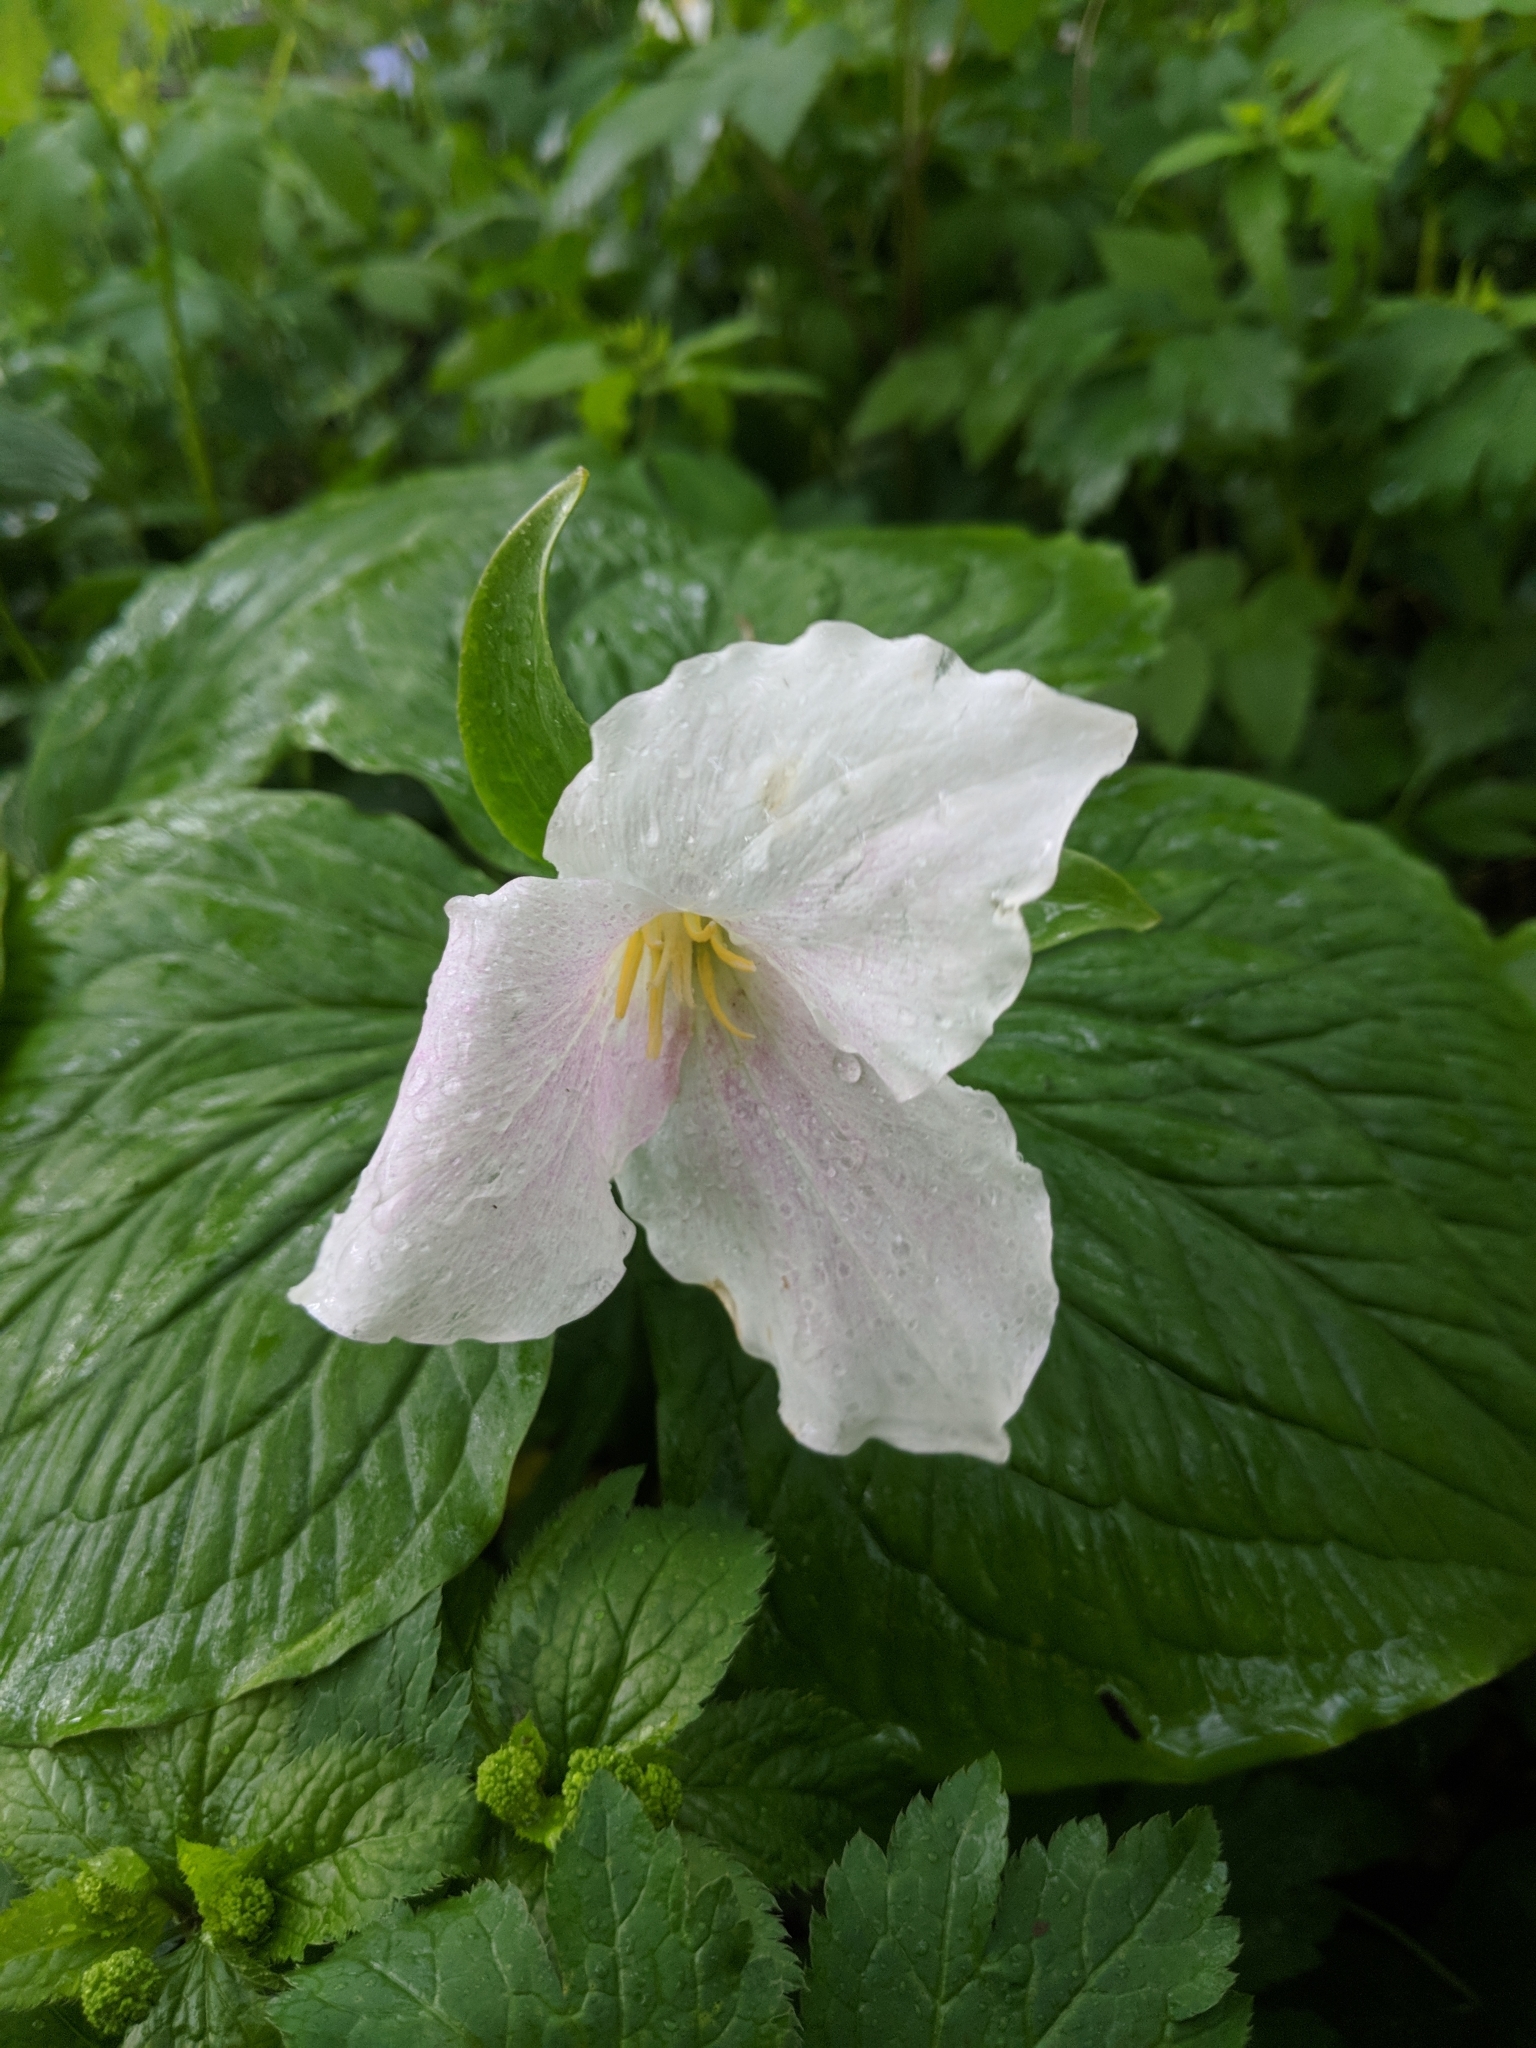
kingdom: Plantae
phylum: Tracheophyta
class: Liliopsida
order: Liliales
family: Melanthiaceae
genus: Trillium
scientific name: Trillium grandiflorum
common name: Great white trillium
